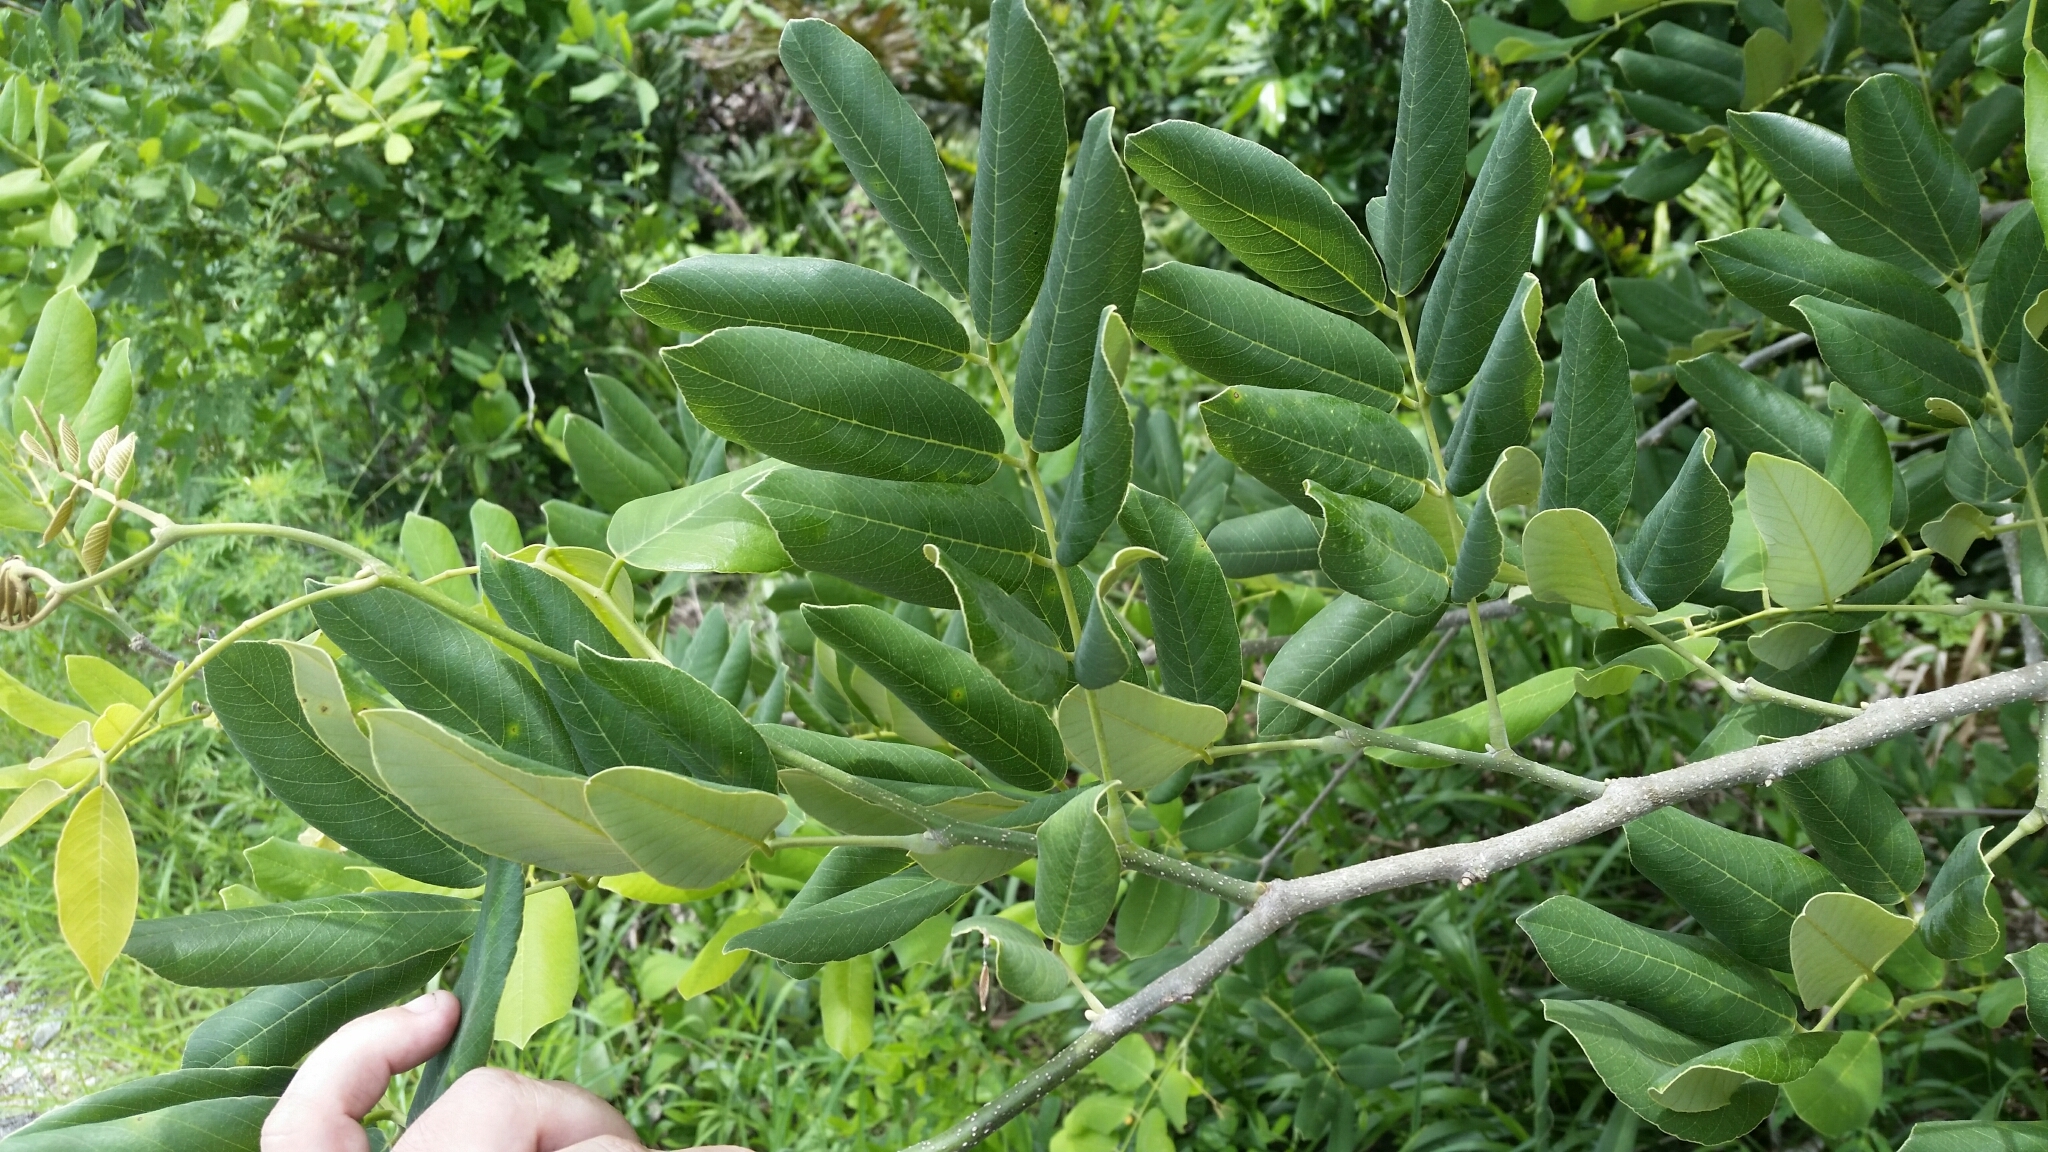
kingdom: Plantae
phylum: Tracheophyta
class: Magnoliopsida
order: Fabales
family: Fabaceae
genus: Piscidia
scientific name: Piscidia piscipula
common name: Florida fishpoison tree
